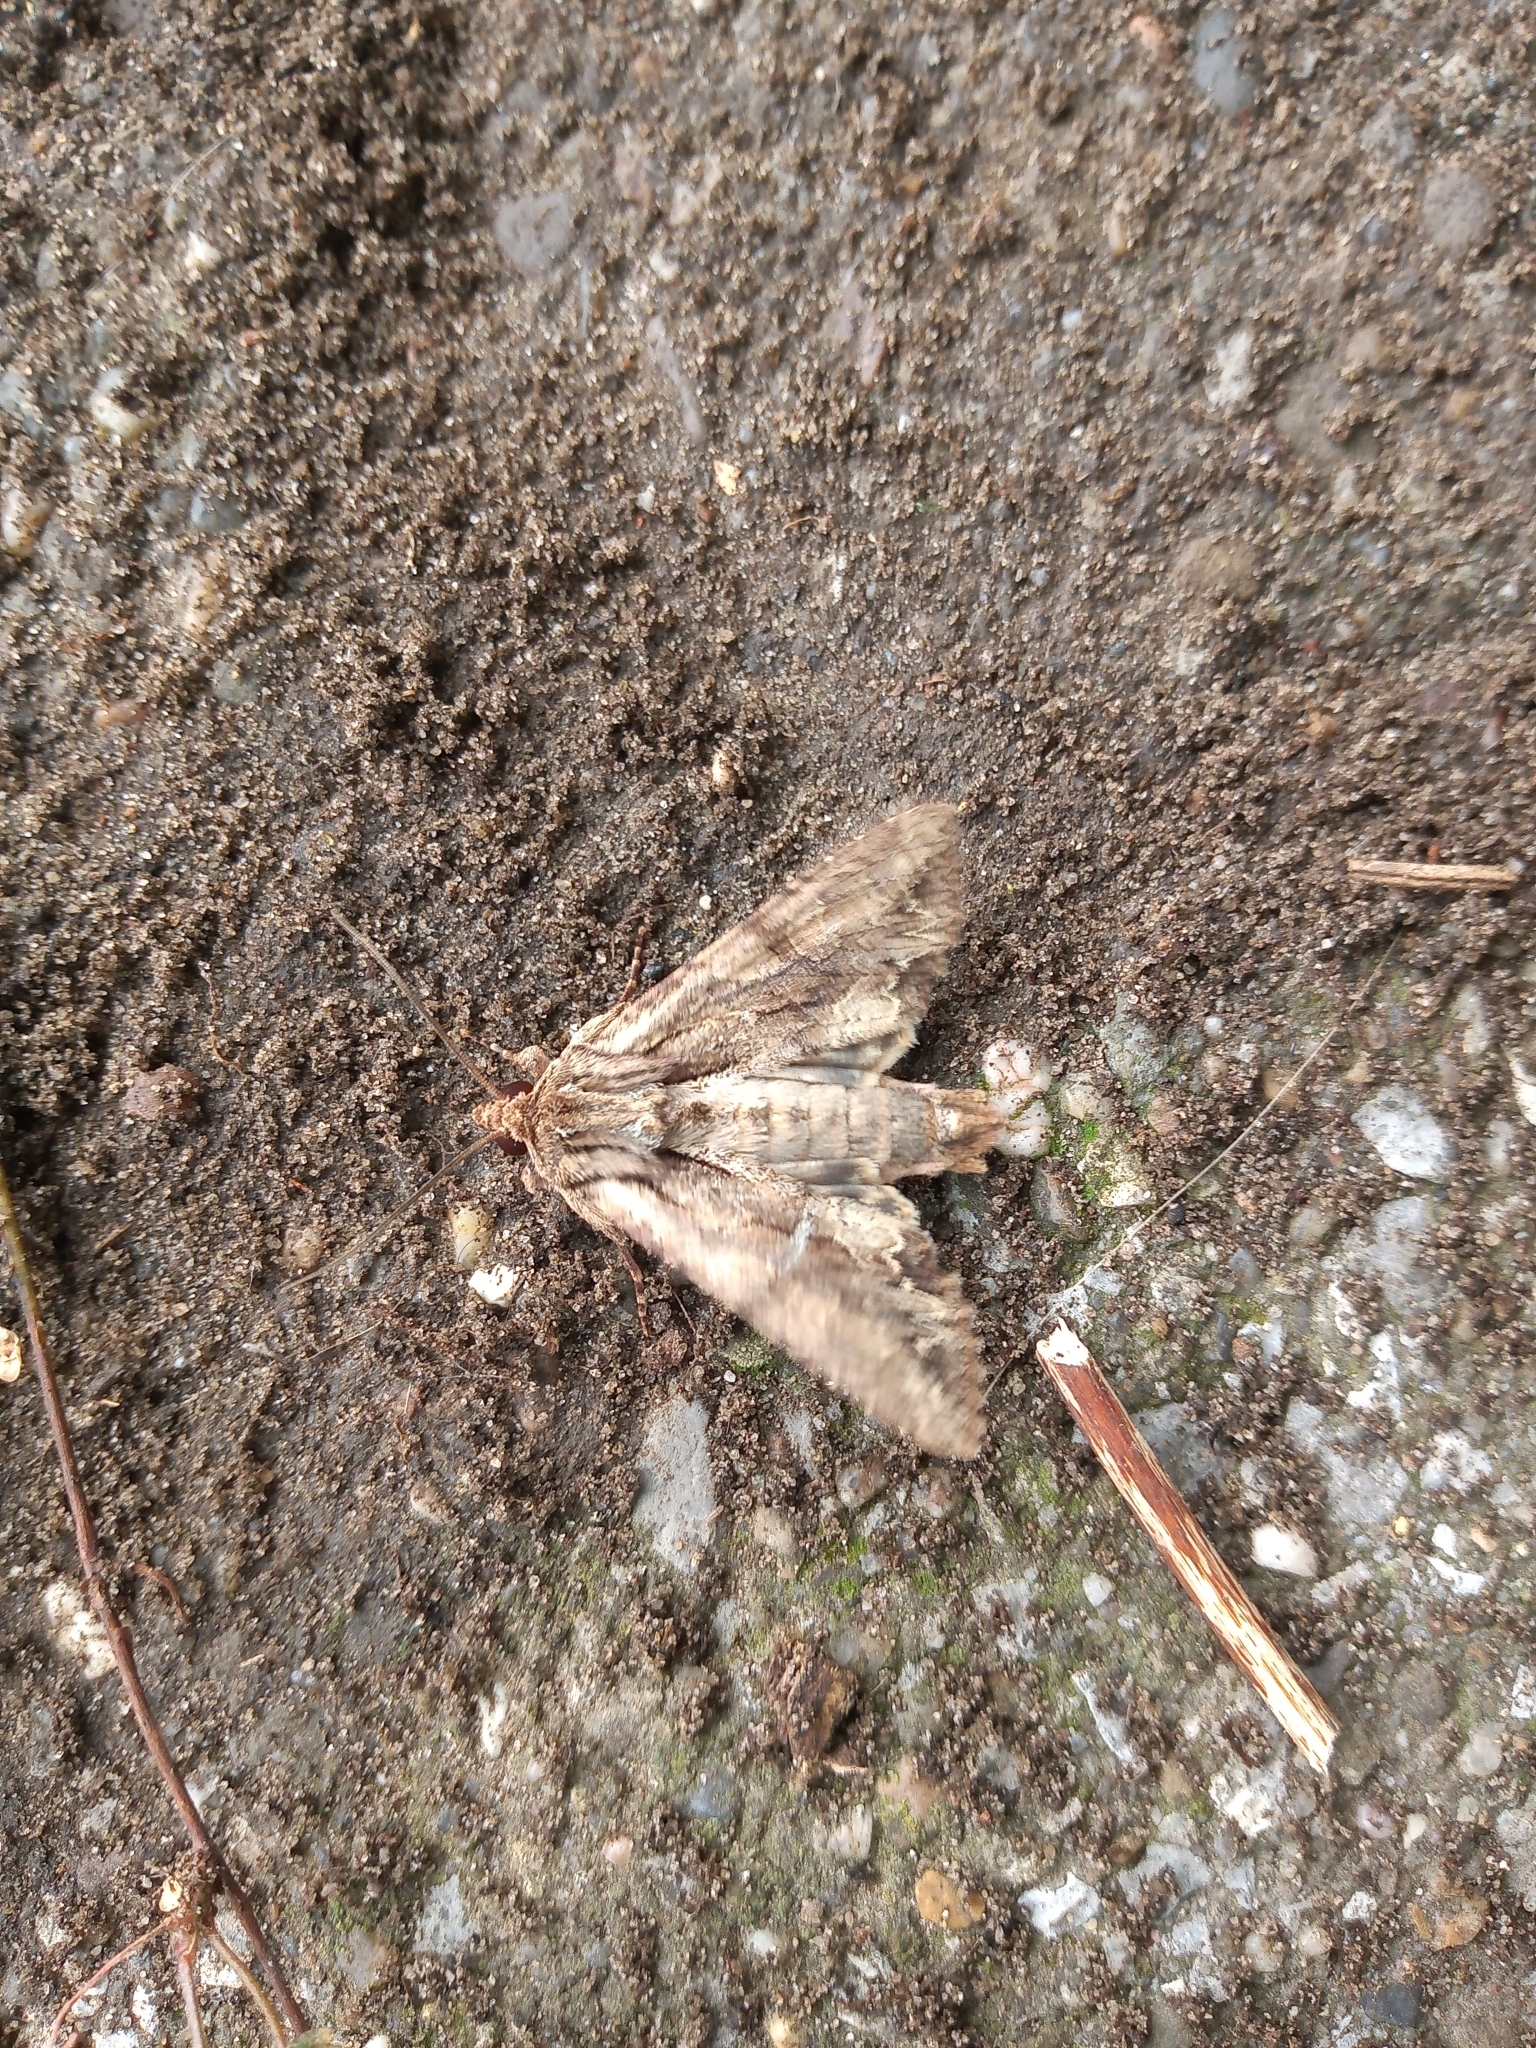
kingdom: Animalia
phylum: Arthropoda
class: Insecta
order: Lepidoptera
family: Noctuidae
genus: Apamea
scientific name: Apamea monoglypha
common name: Dark arches
